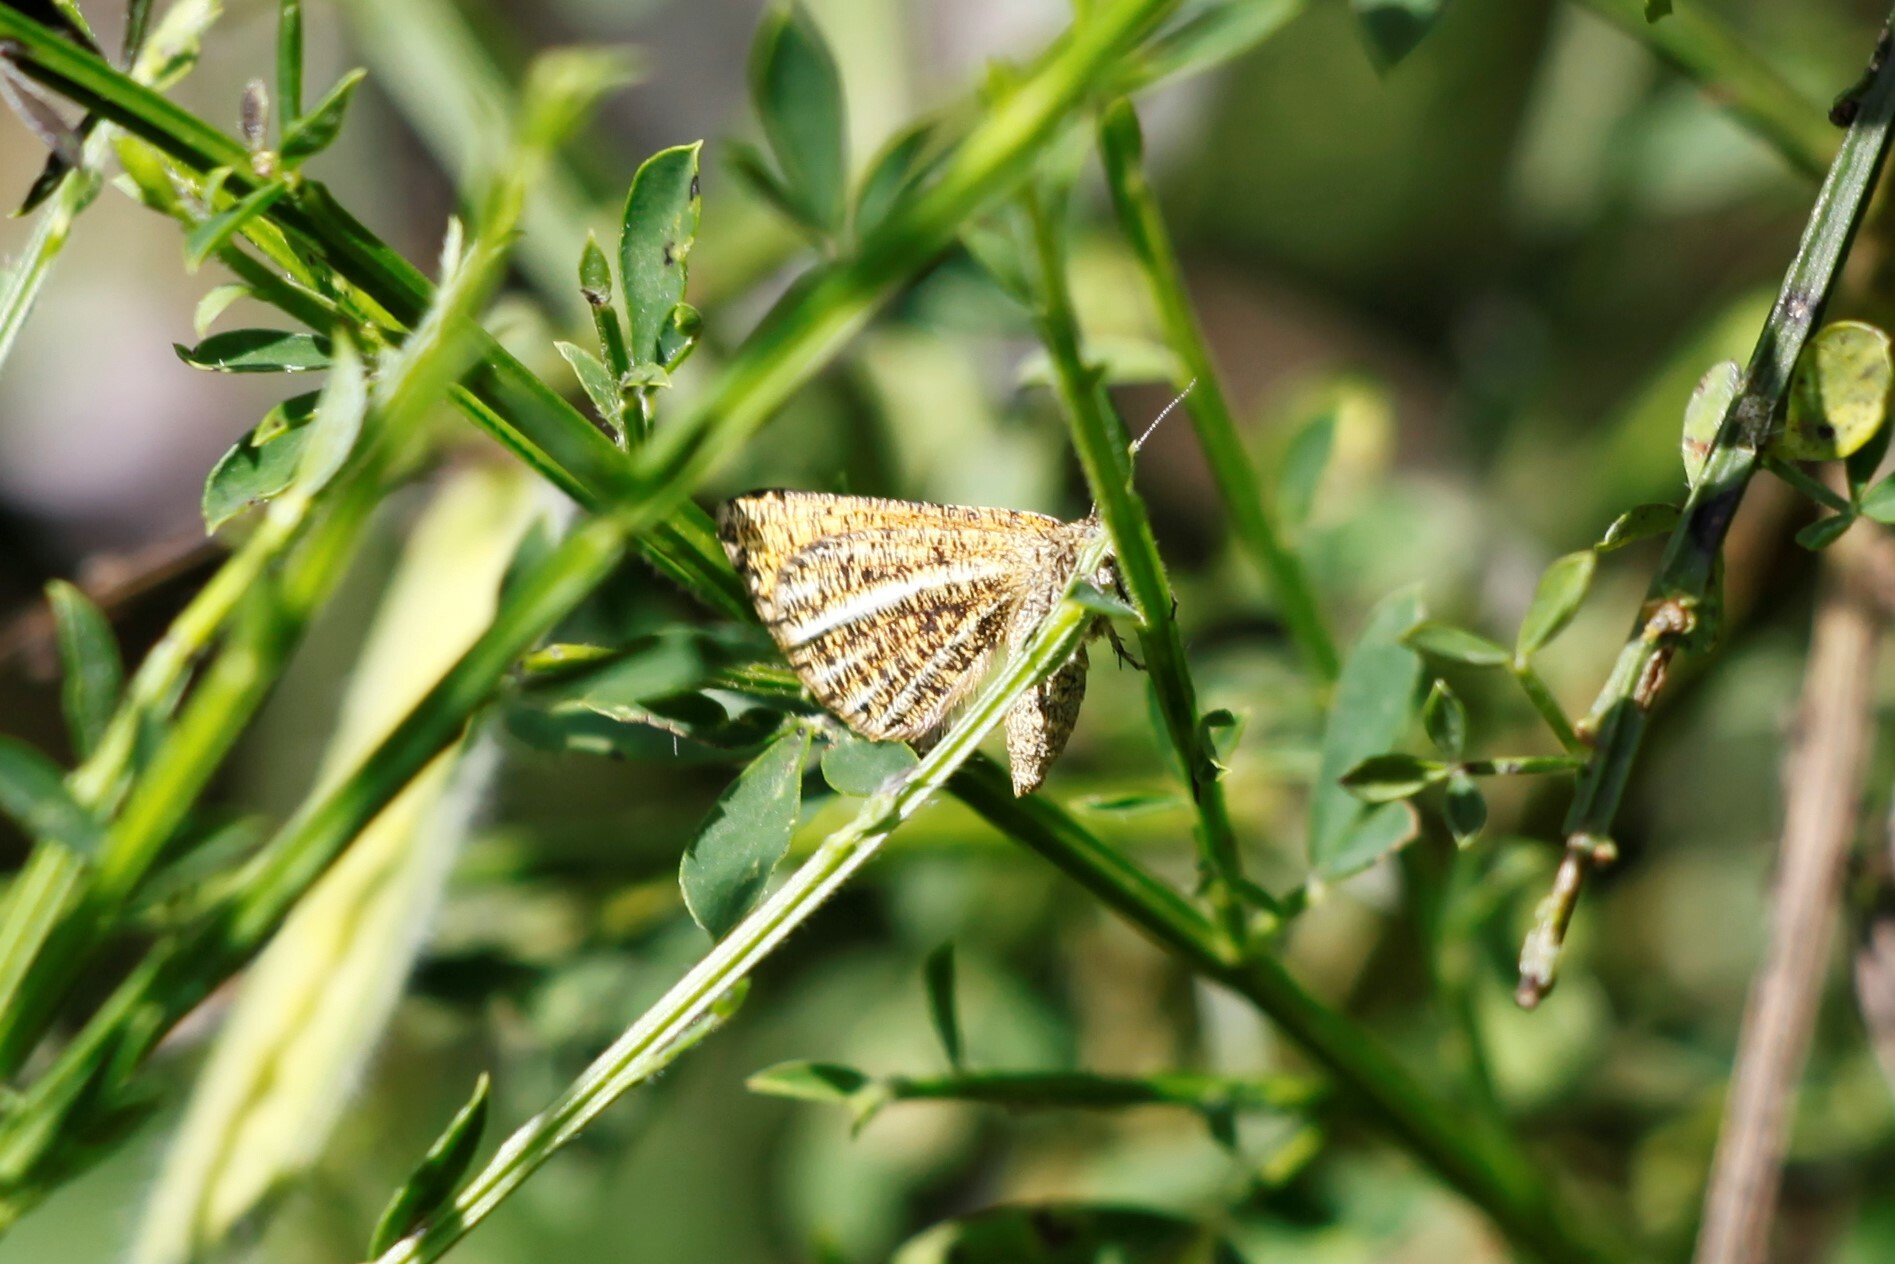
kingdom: Animalia
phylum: Arthropoda
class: Insecta
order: Lepidoptera
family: Geometridae
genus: Isturgia
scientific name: Isturgia limbaria
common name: Frosted yellow
